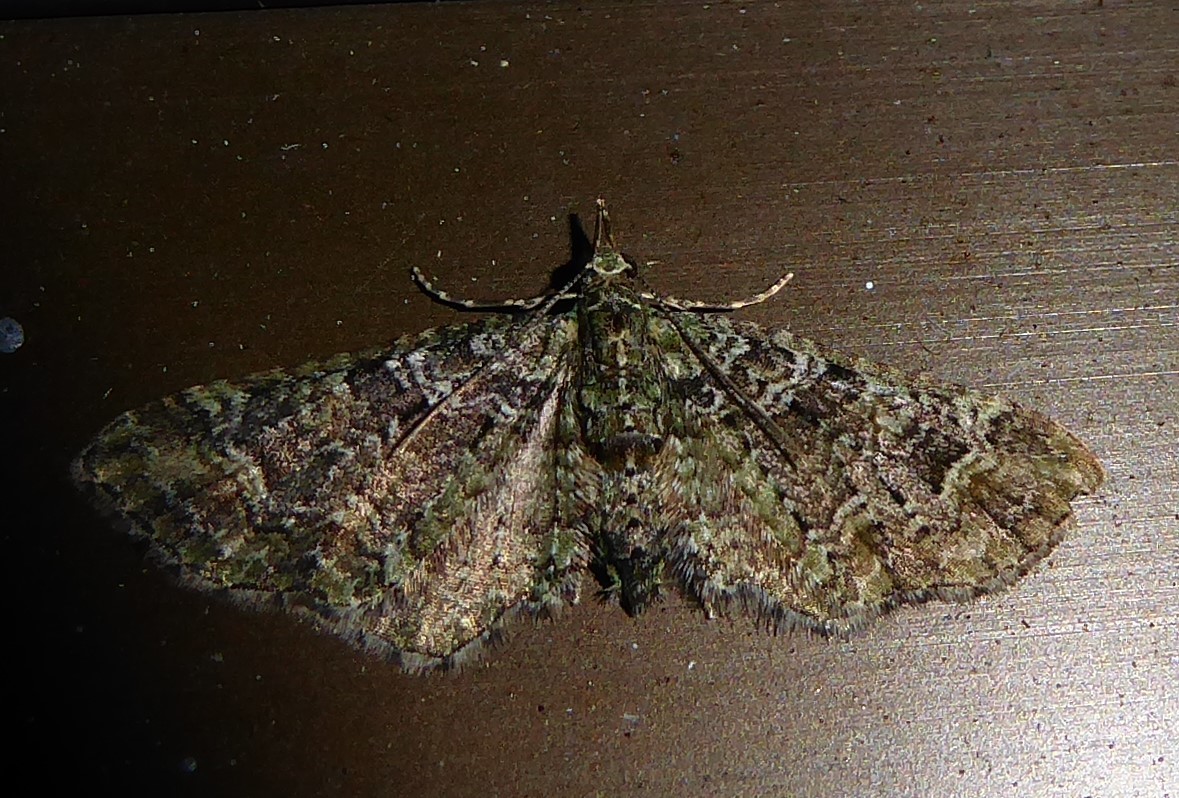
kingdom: Animalia
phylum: Arthropoda
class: Insecta
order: Lepidoptera
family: Geometridae
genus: Idaea
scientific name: Idaea mutanda
